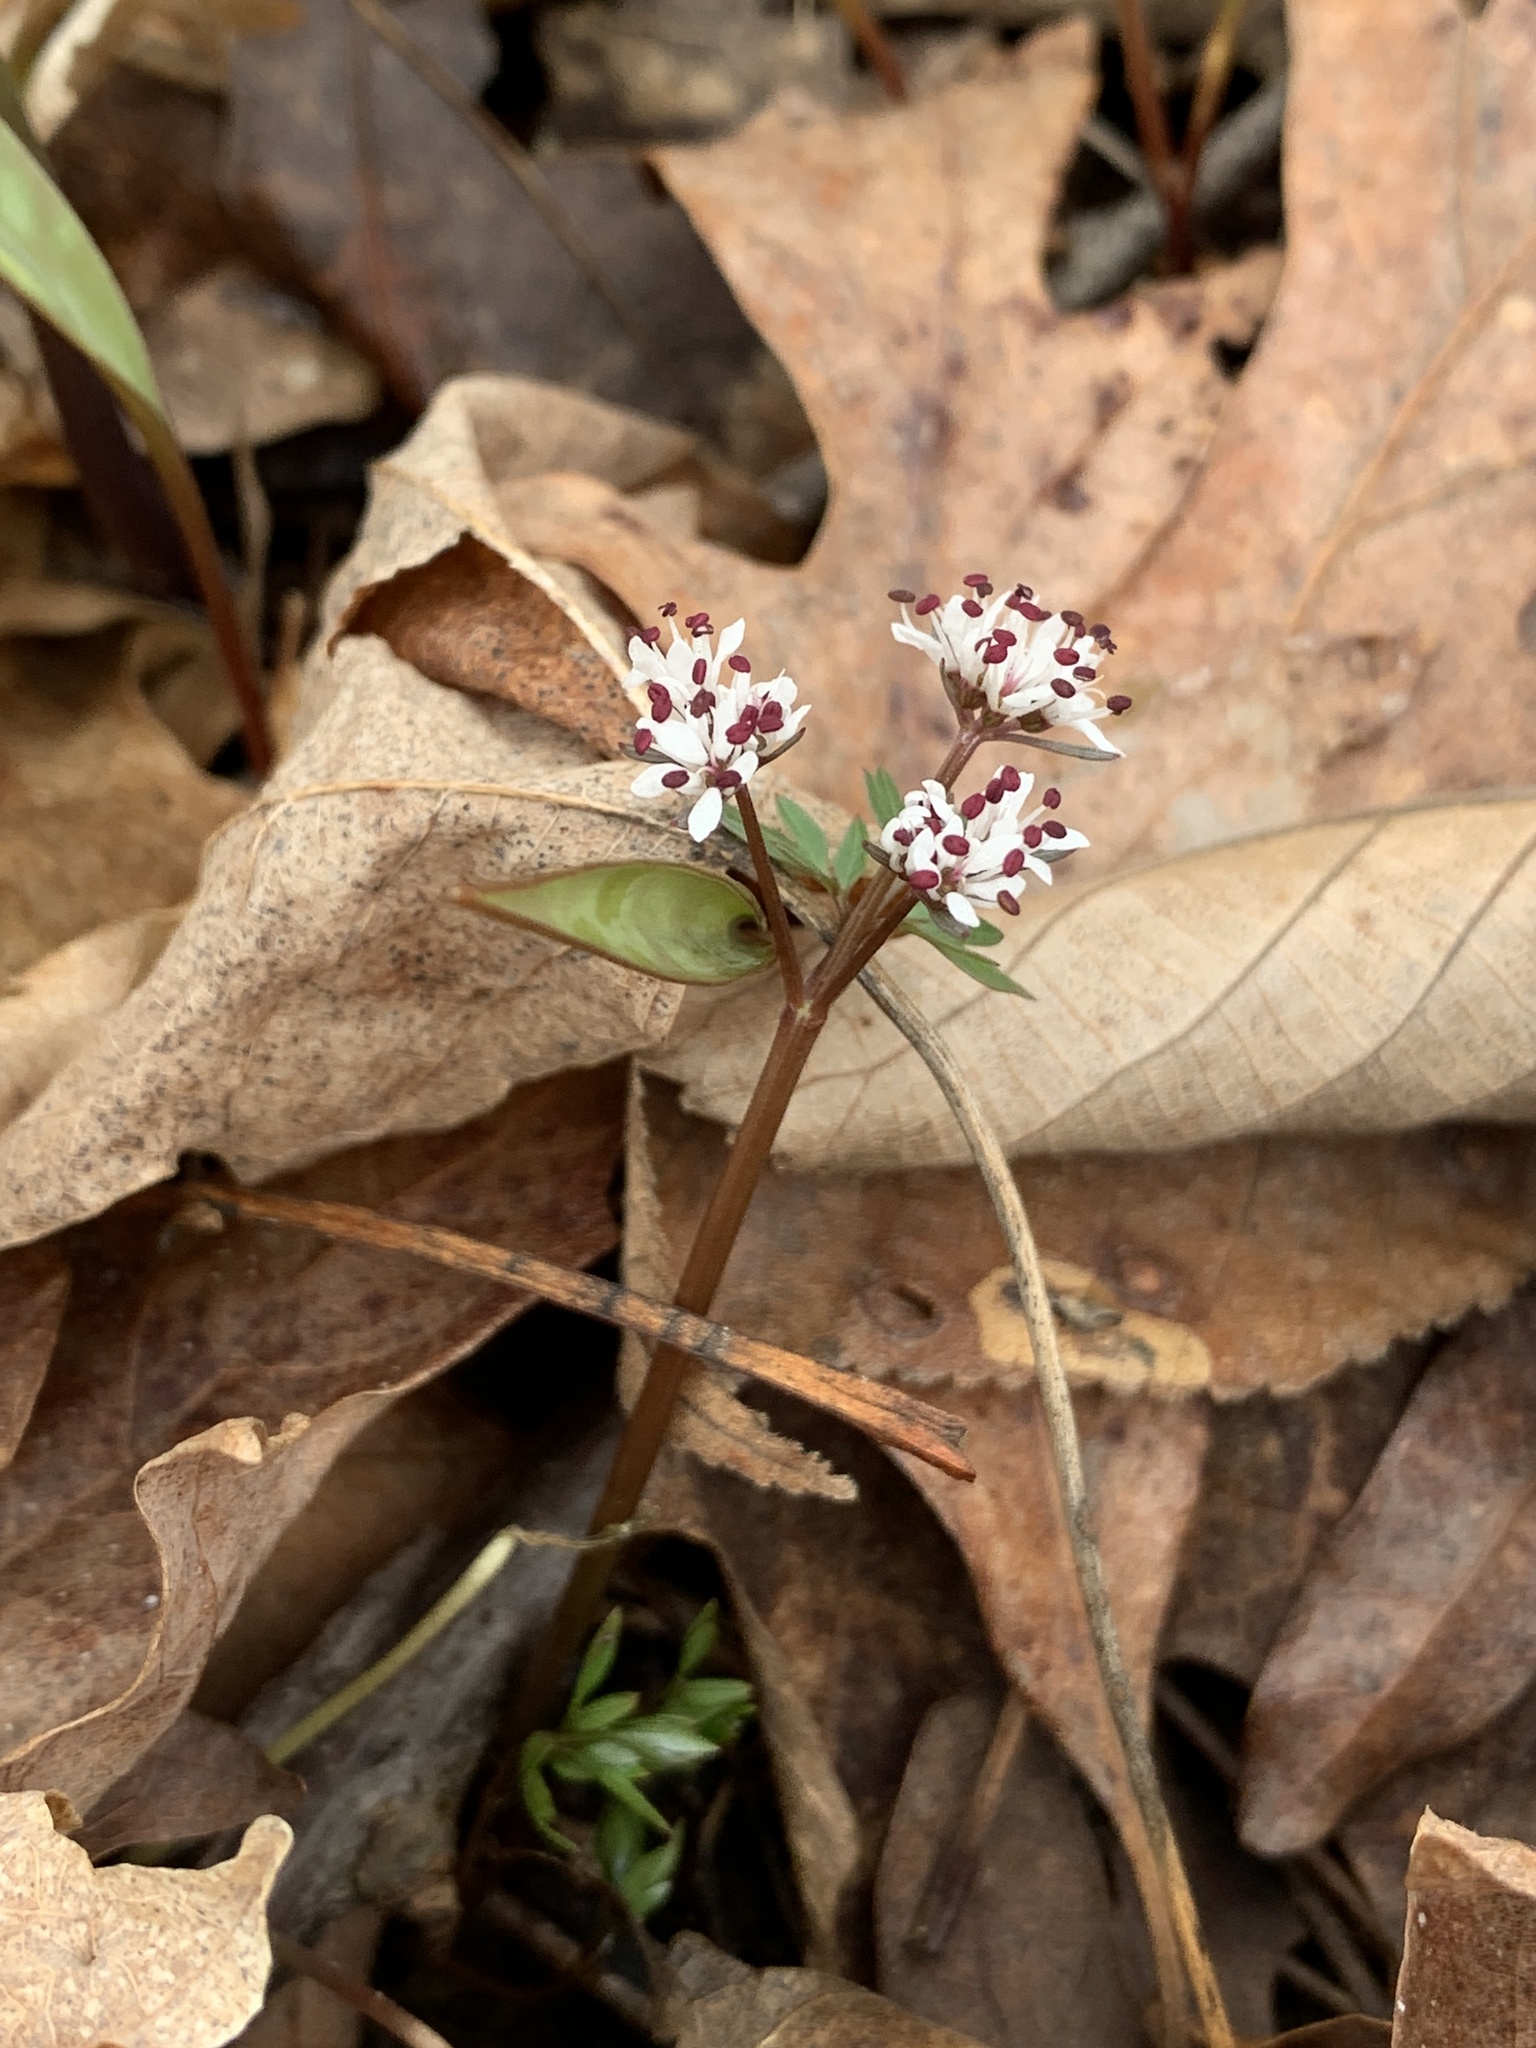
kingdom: Plantae
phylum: Tracheophyta
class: Magnoliopsida
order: Apiales
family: Apiaceae
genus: Erigenia
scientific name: Erigenia bulbosa
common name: Pepper-and-salt
